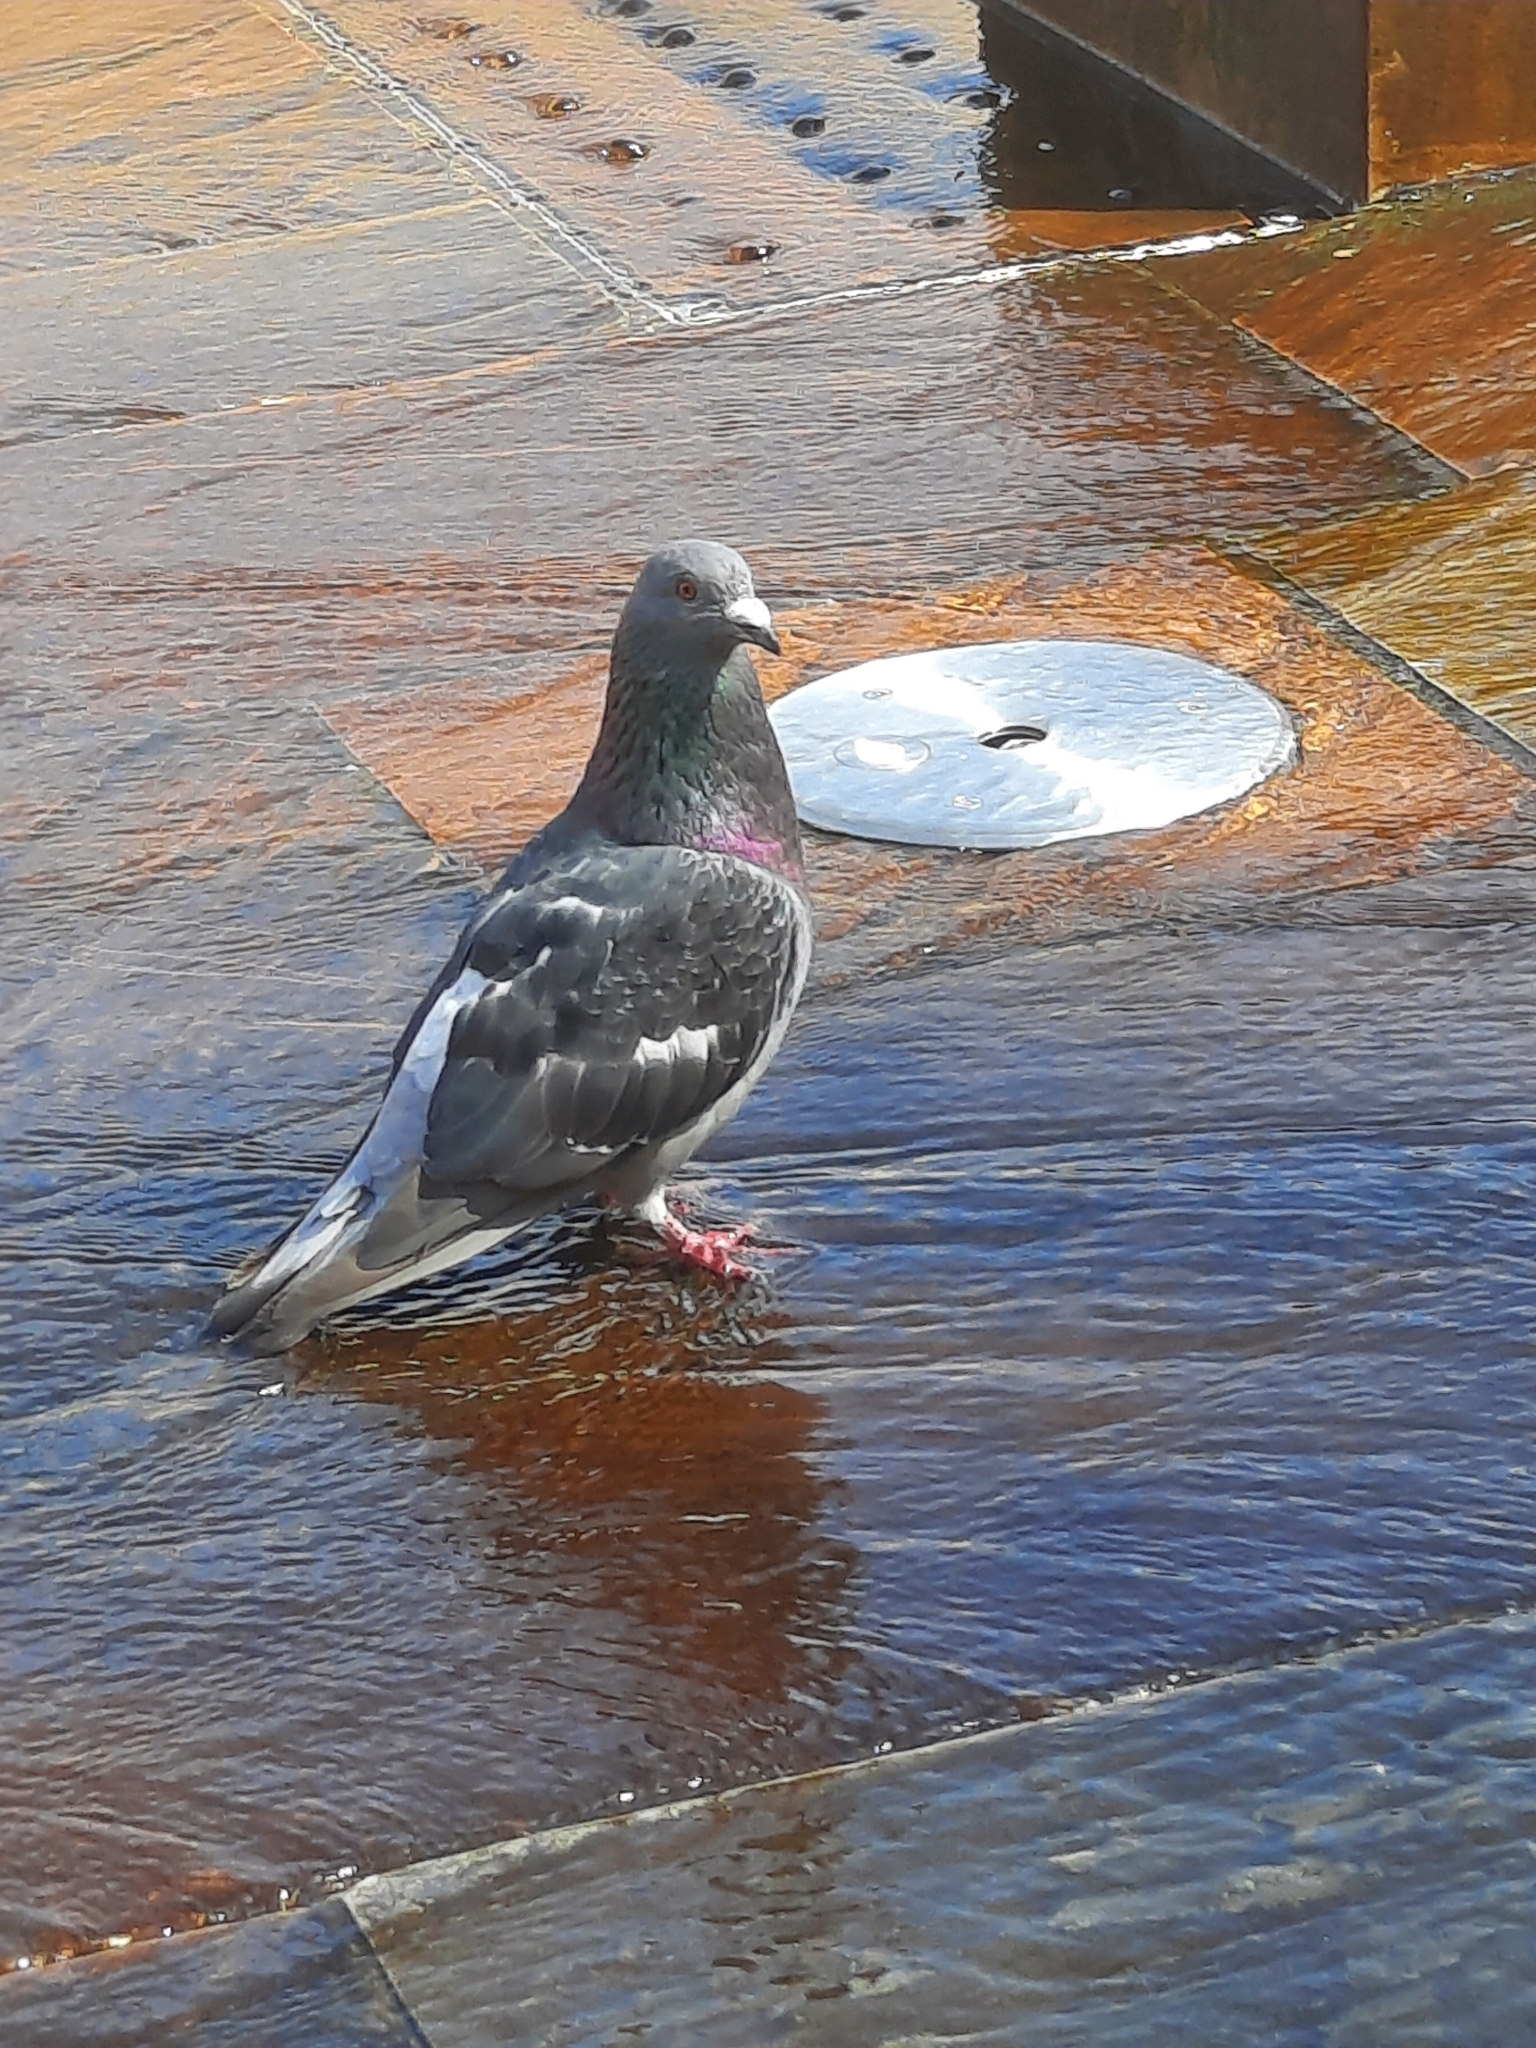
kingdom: Animalia
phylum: Chordata
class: Aves
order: Columbiformes
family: Columbidae
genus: Columba
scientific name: Columba livia
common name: Rock pigeon
